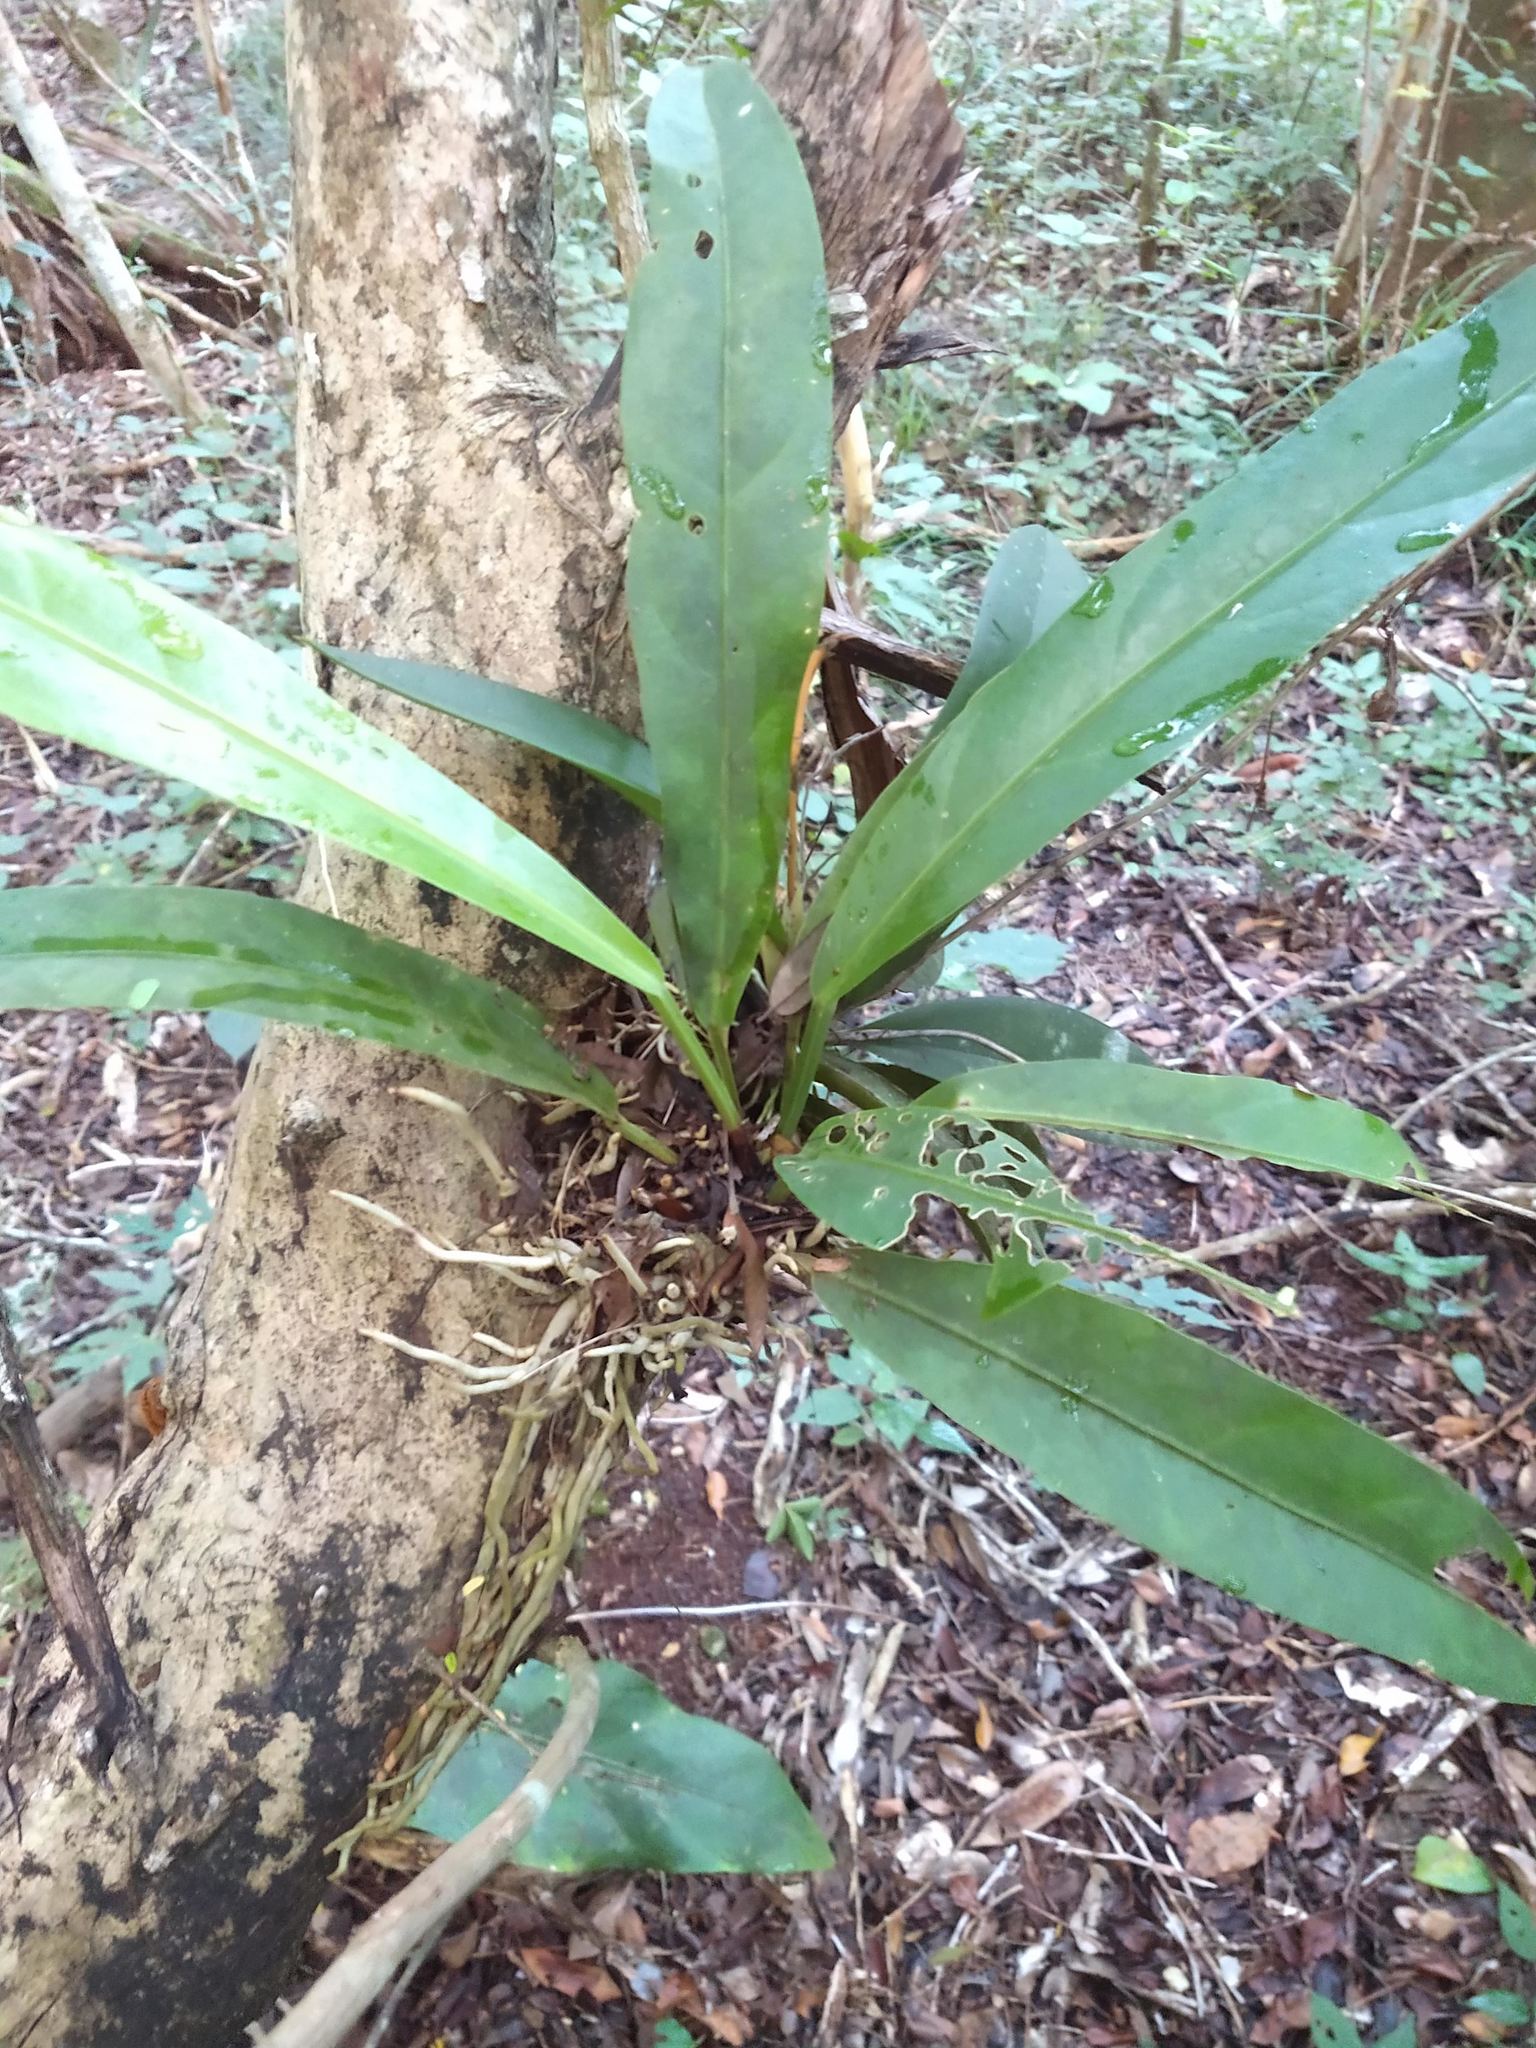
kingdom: Plantae
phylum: Tracheophyta
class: Liliopsida
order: Alismatales
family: Araceae
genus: Anthurium
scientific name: Anthurium schlechtendalii
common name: Laceleaf
